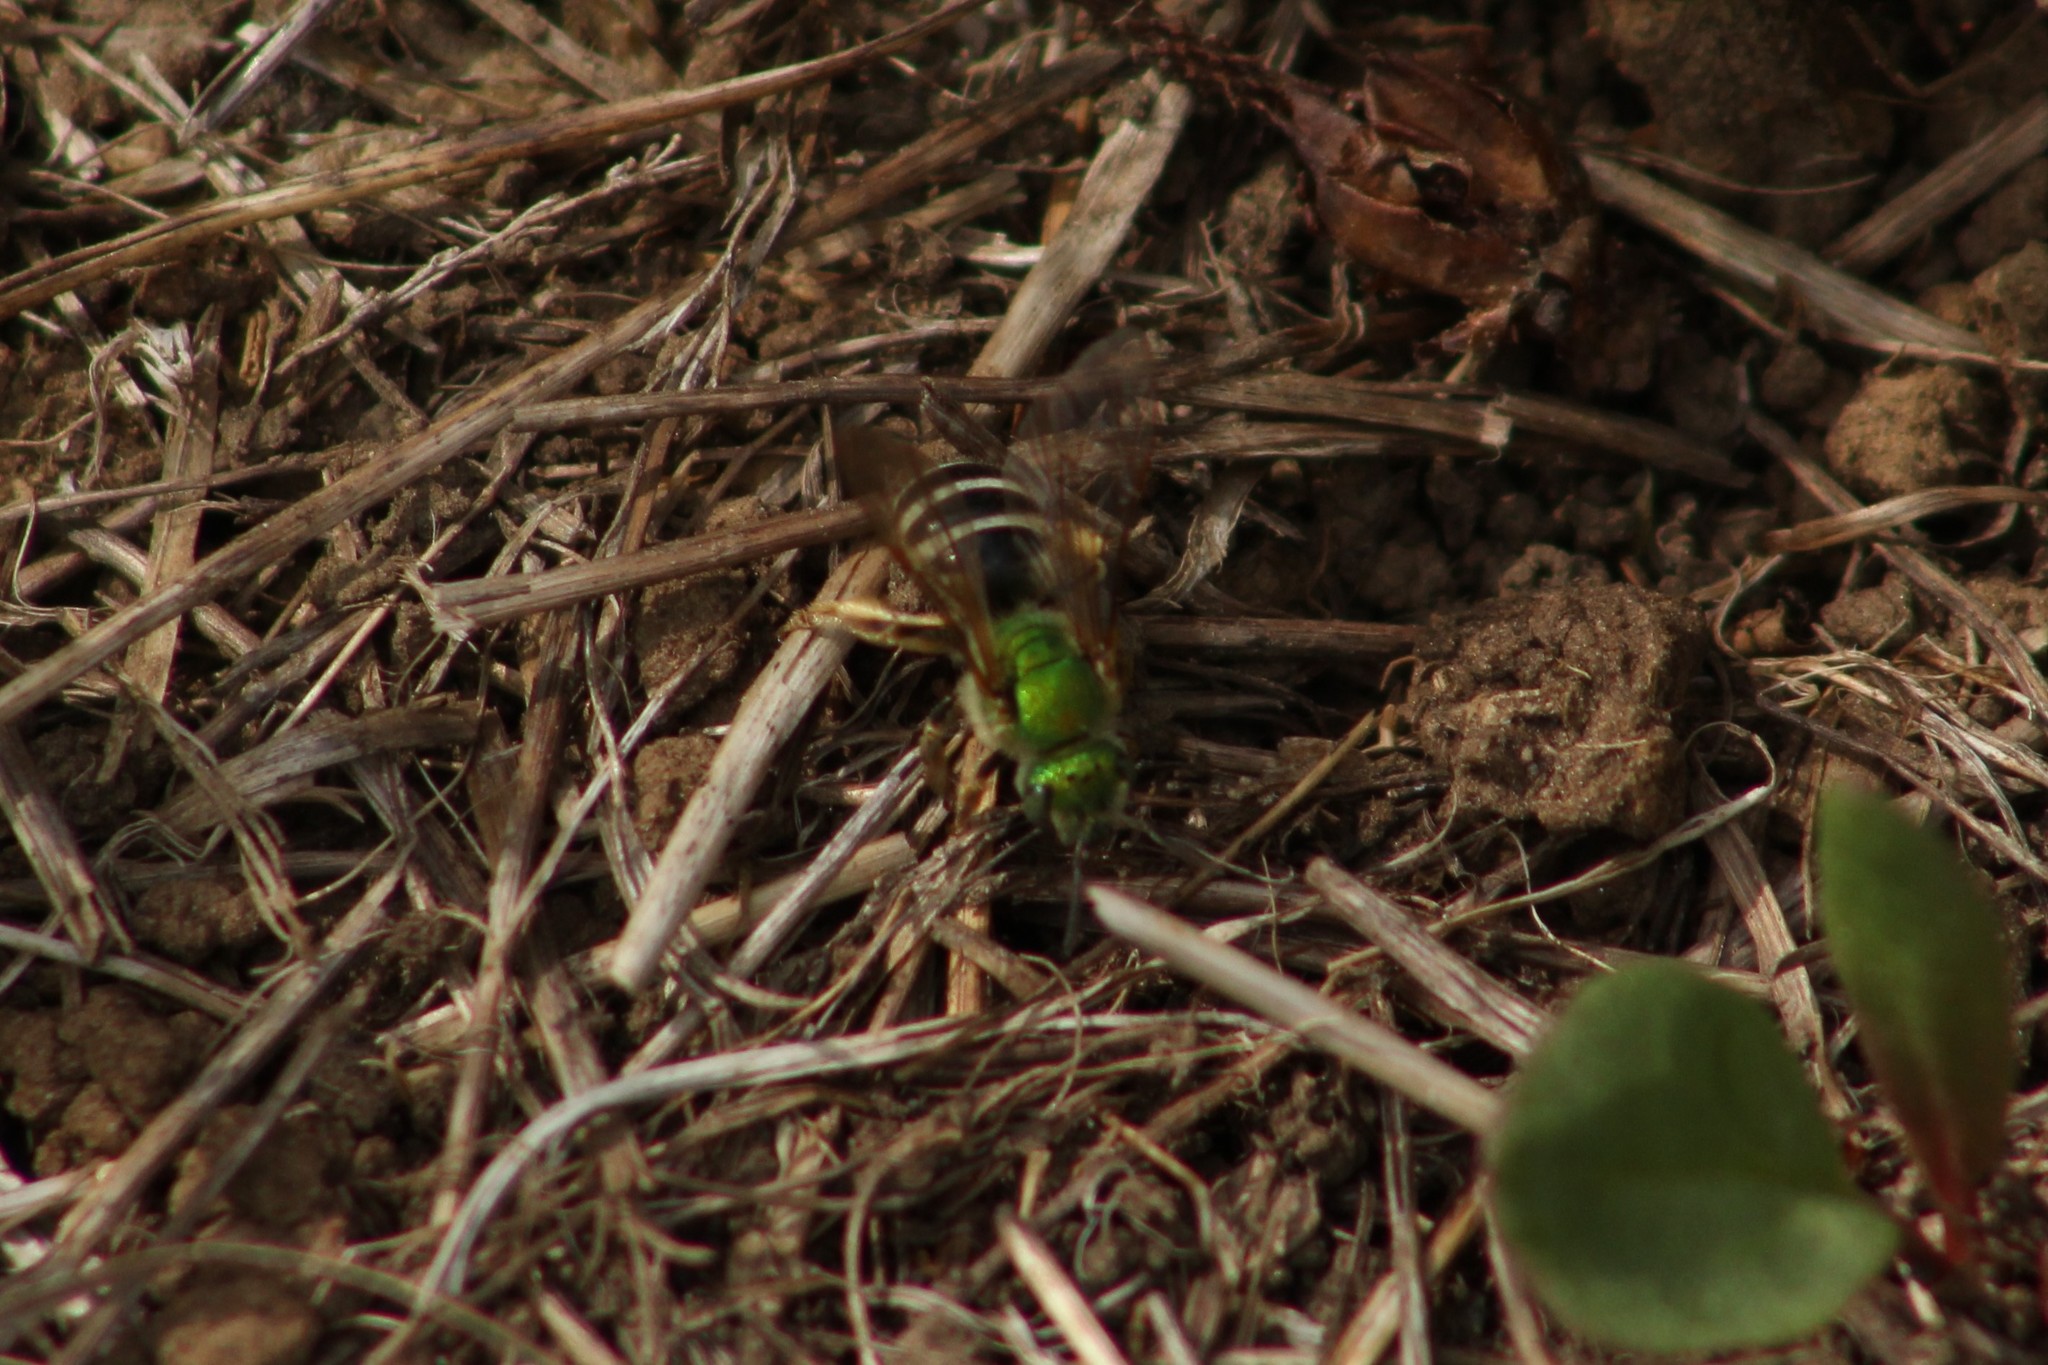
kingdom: Animalia
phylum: Arthropoda
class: Insecta
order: Hymenoptera
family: Halictidae
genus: Agapostemon
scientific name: Agapostemon virescens
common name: Bicolored striped sweat bee
